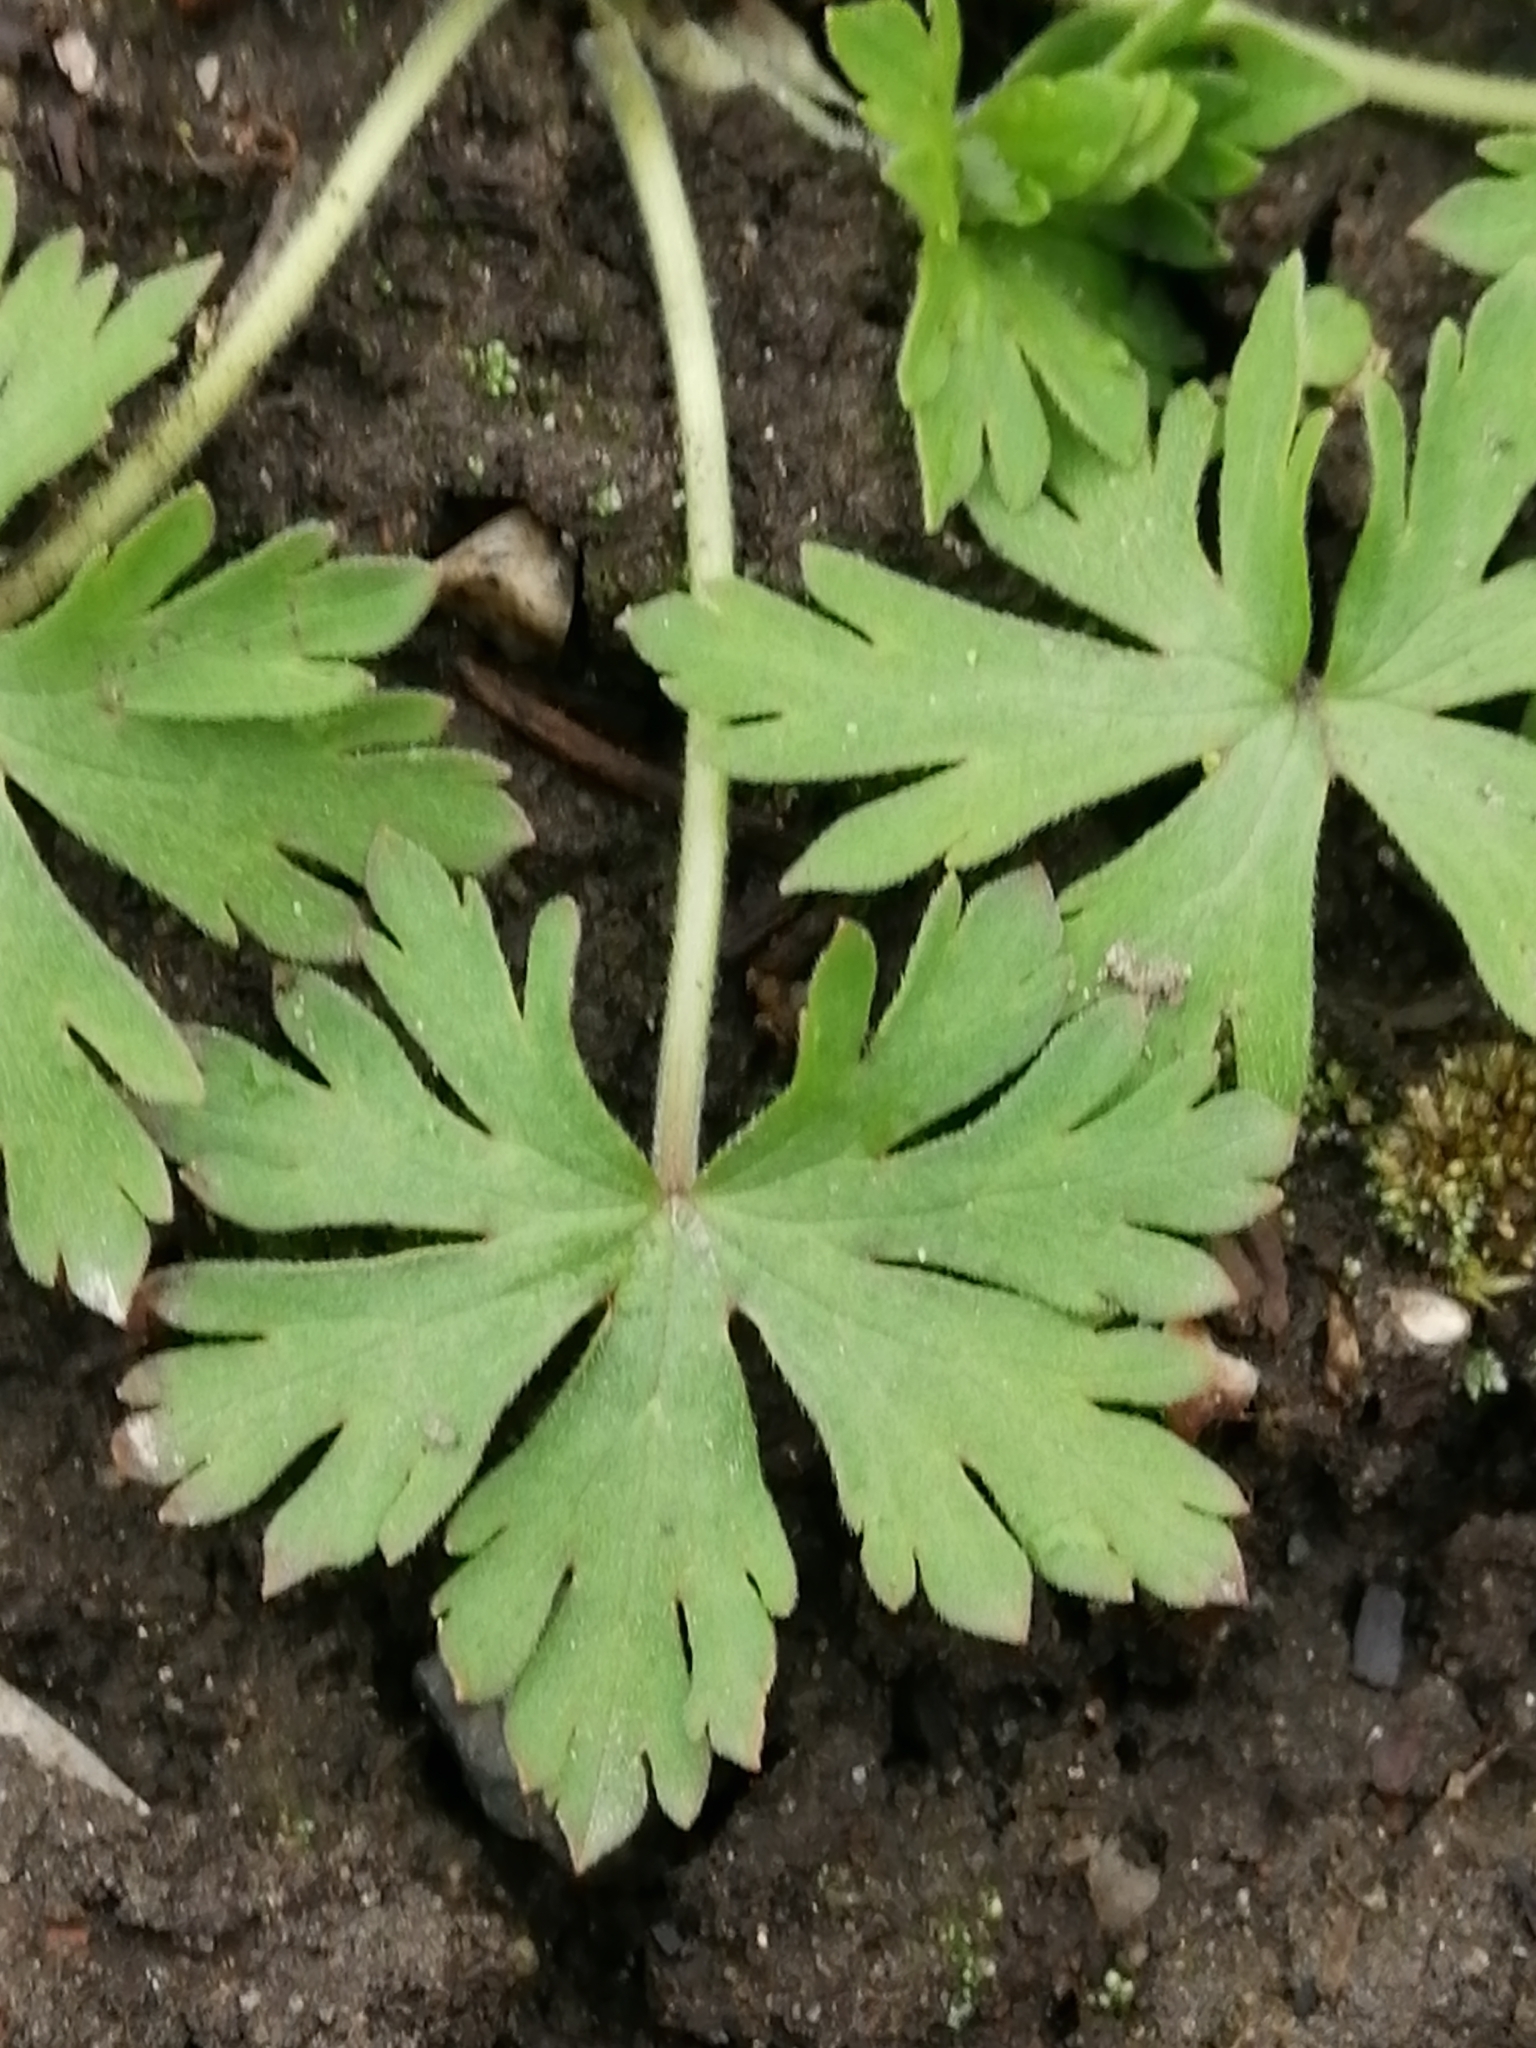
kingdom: Plantae
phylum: Tracheophyta
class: Magnoliopsida
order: Geraniales
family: Geraniaceae
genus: Geranium
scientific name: Geranium sibiricum
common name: Siberian crane's-bill
